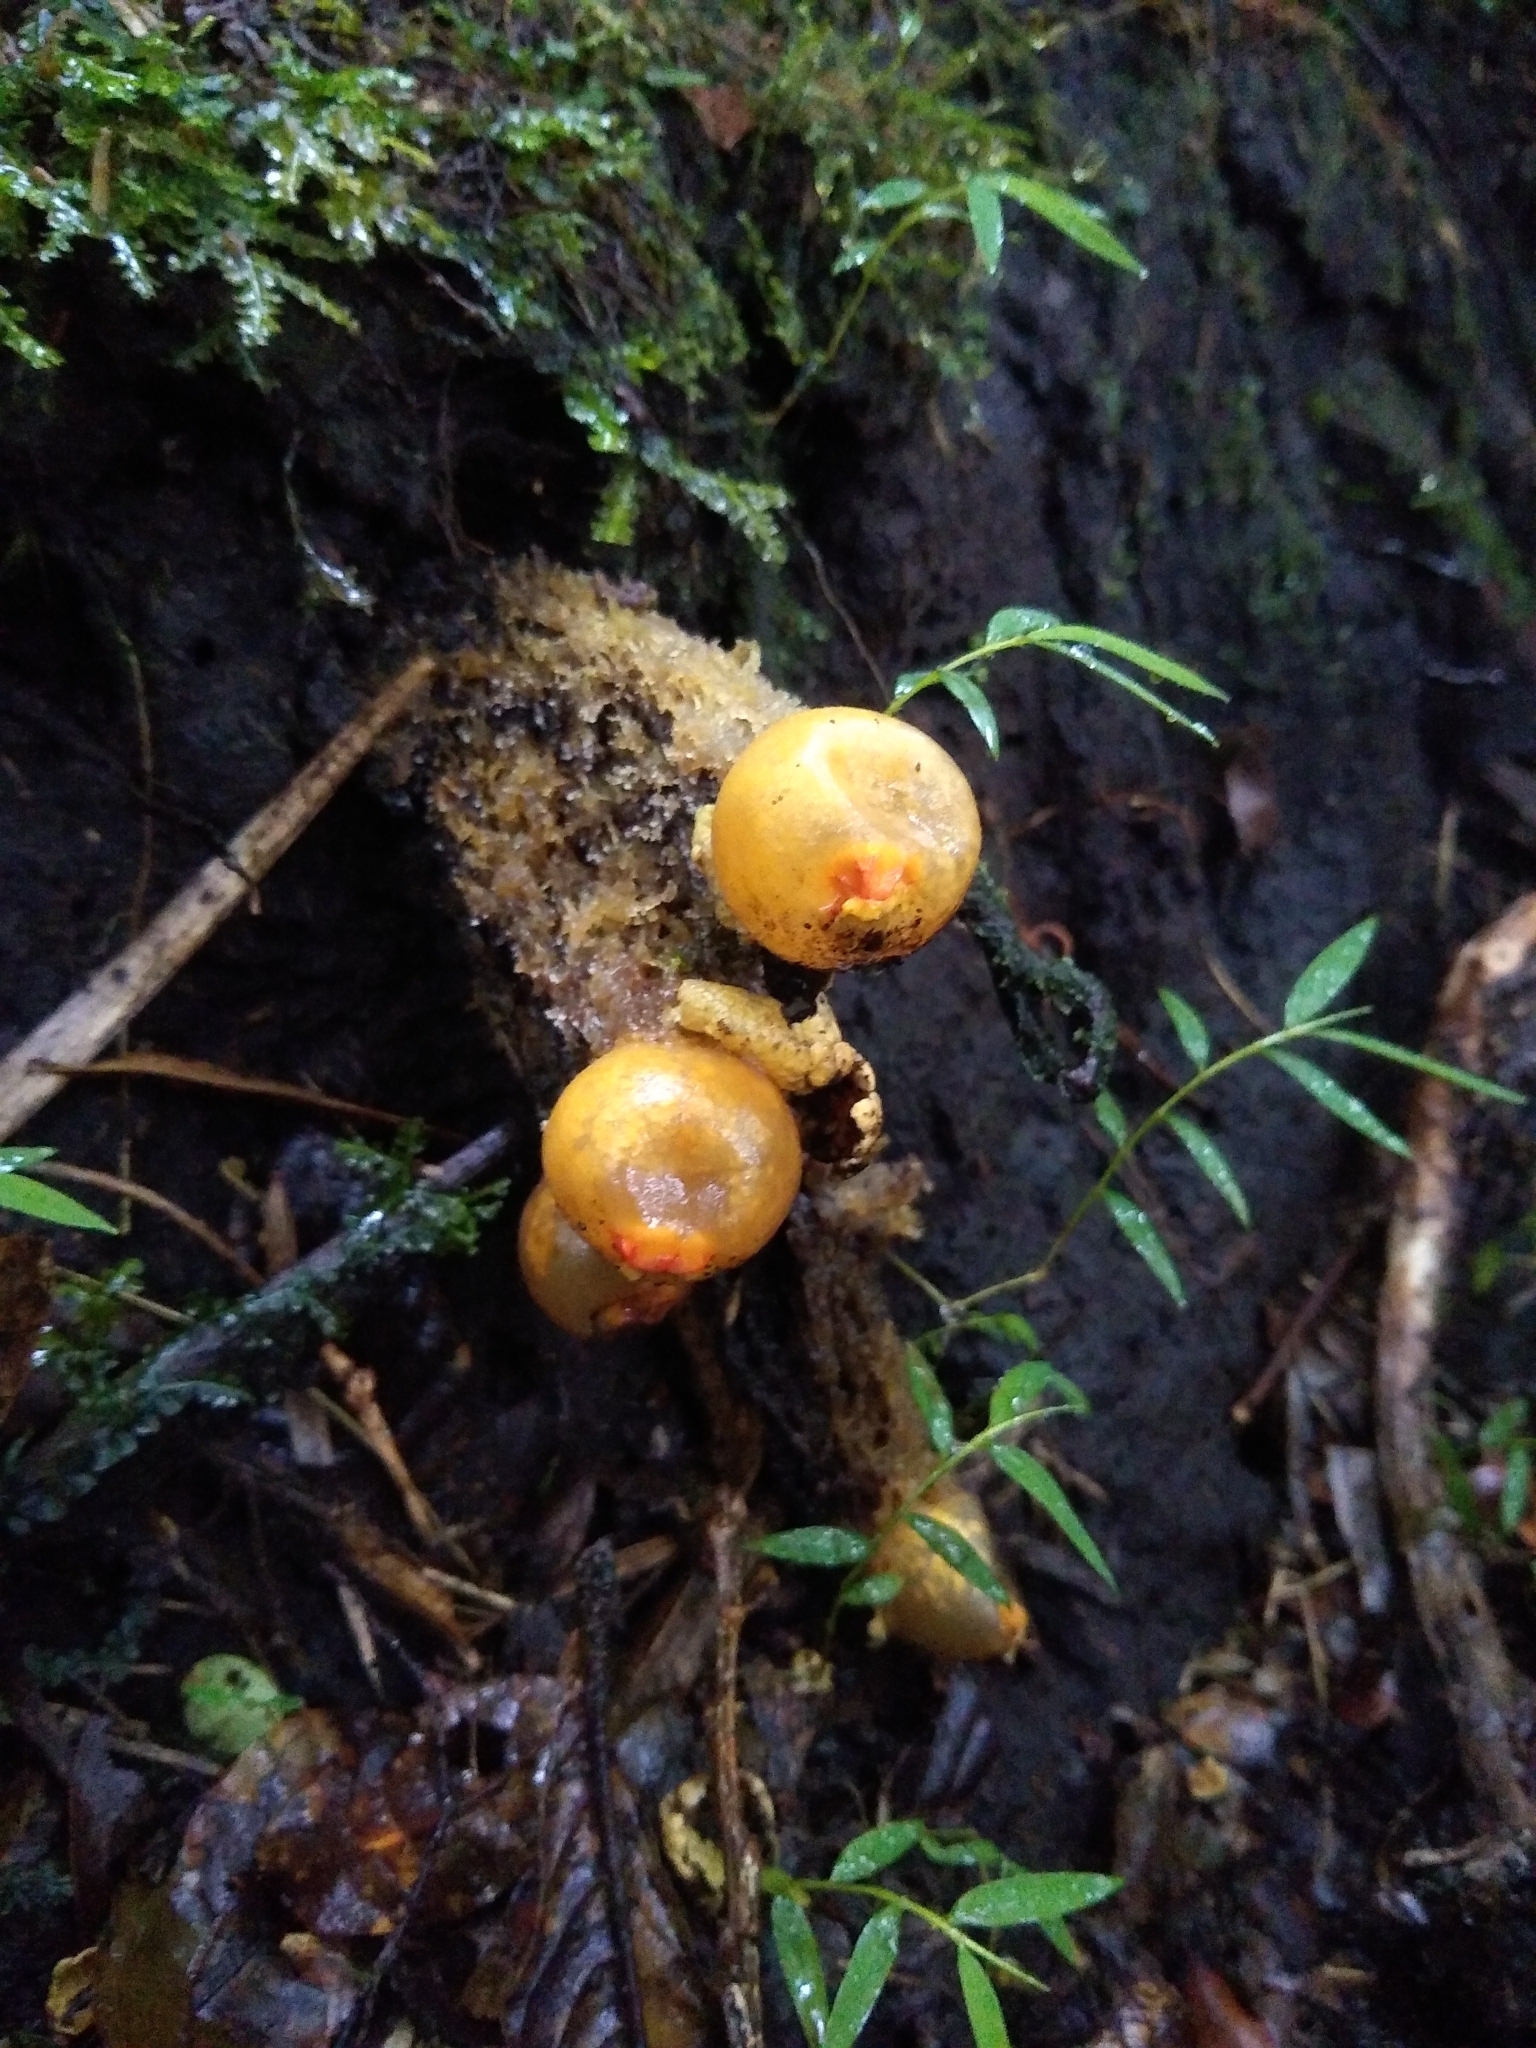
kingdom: Fungi
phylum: Basidiomycota
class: Agaricomycetes
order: Boletales
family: Calostomataceae
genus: Calostoma
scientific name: Calostoma lutescens
